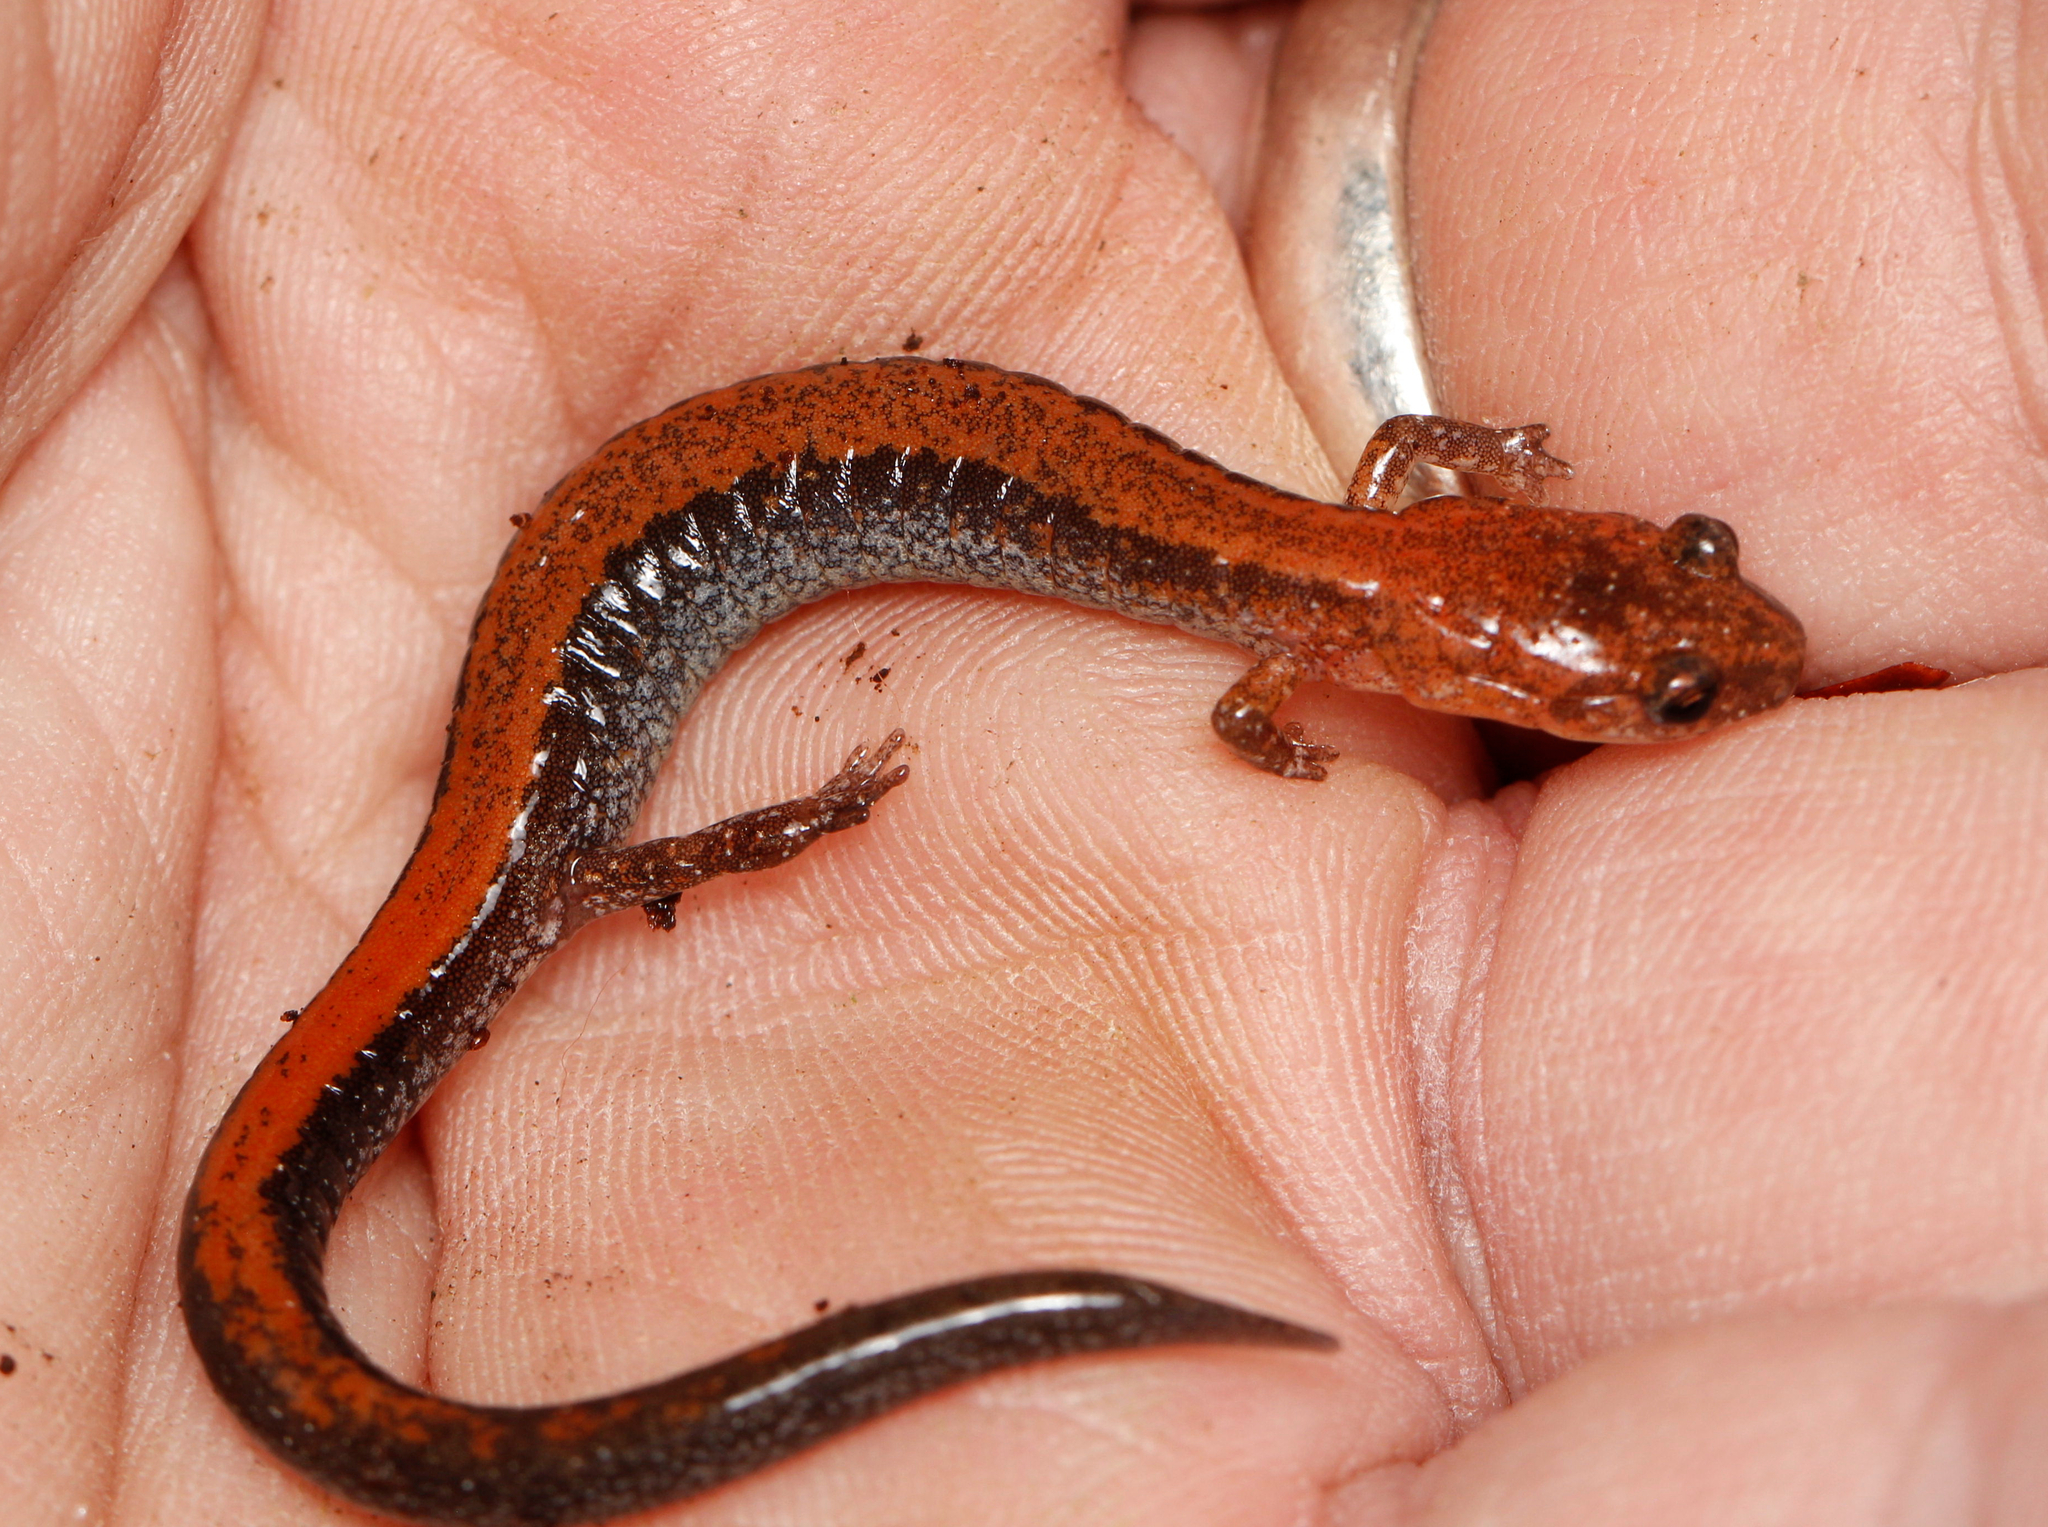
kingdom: Animalia
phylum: Chordata
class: Amphibia
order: Caudata
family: Plethodontidae
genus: Plethodon
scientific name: Plethodon cinereus
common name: Redback salamander
